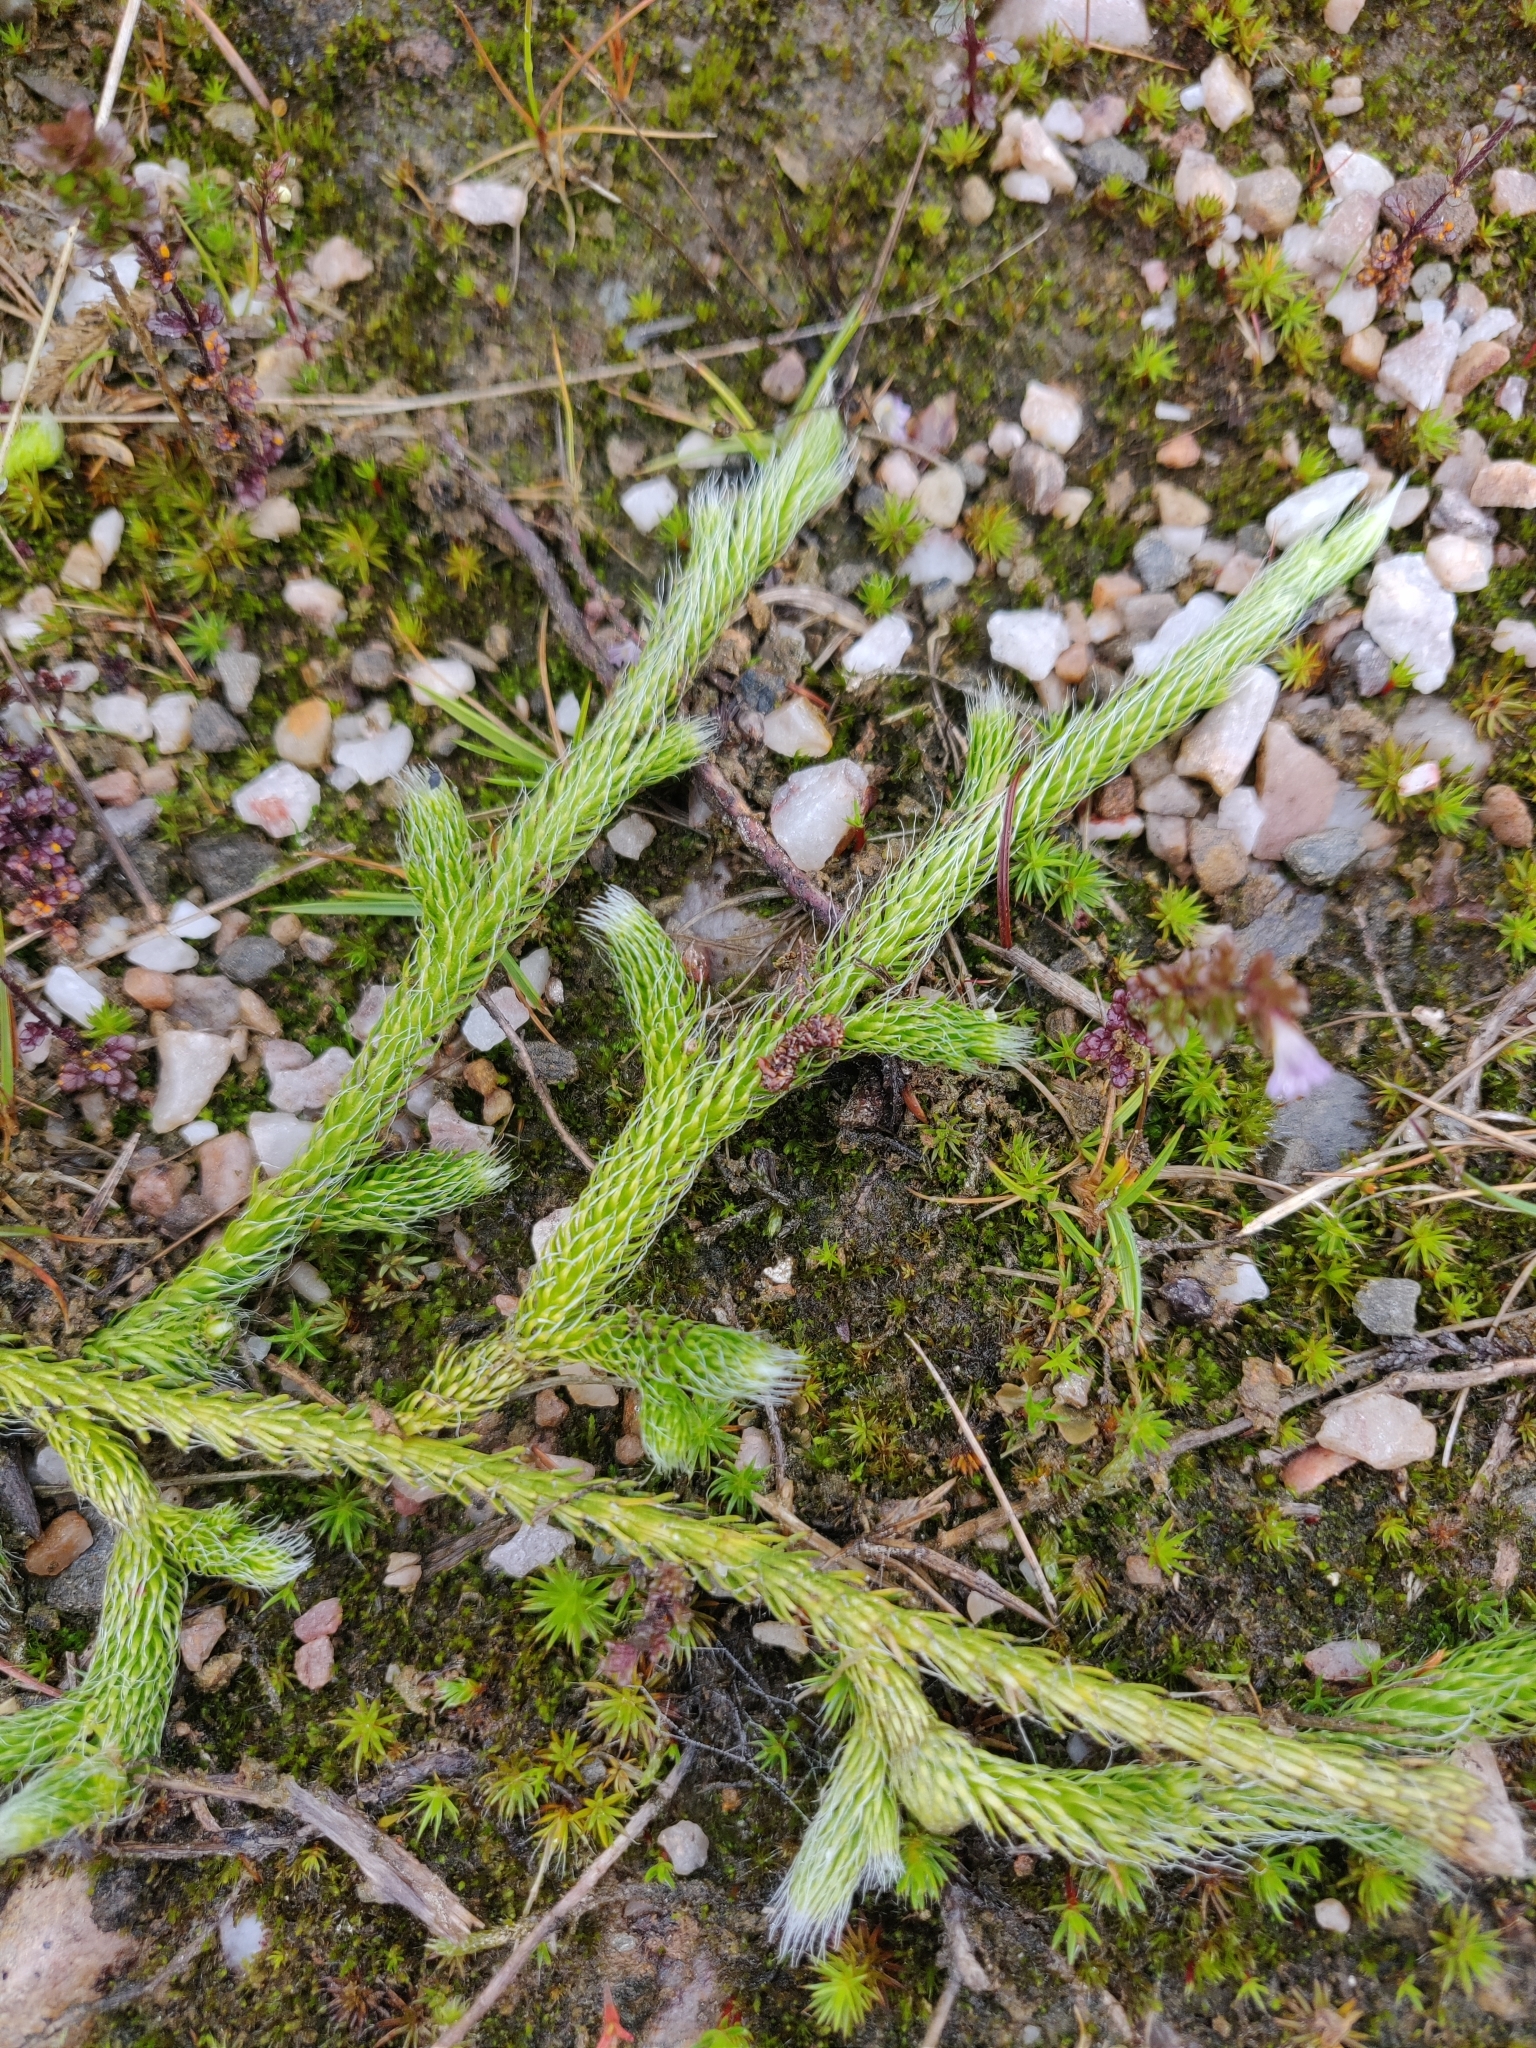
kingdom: Plantae
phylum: Tracheophyta
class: Lycopodiopsida
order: Lycopodiales
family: Lycopodiaceae
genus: Lycopodium
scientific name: Lycopodium clavatum
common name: Stag's-horn clubmoss
